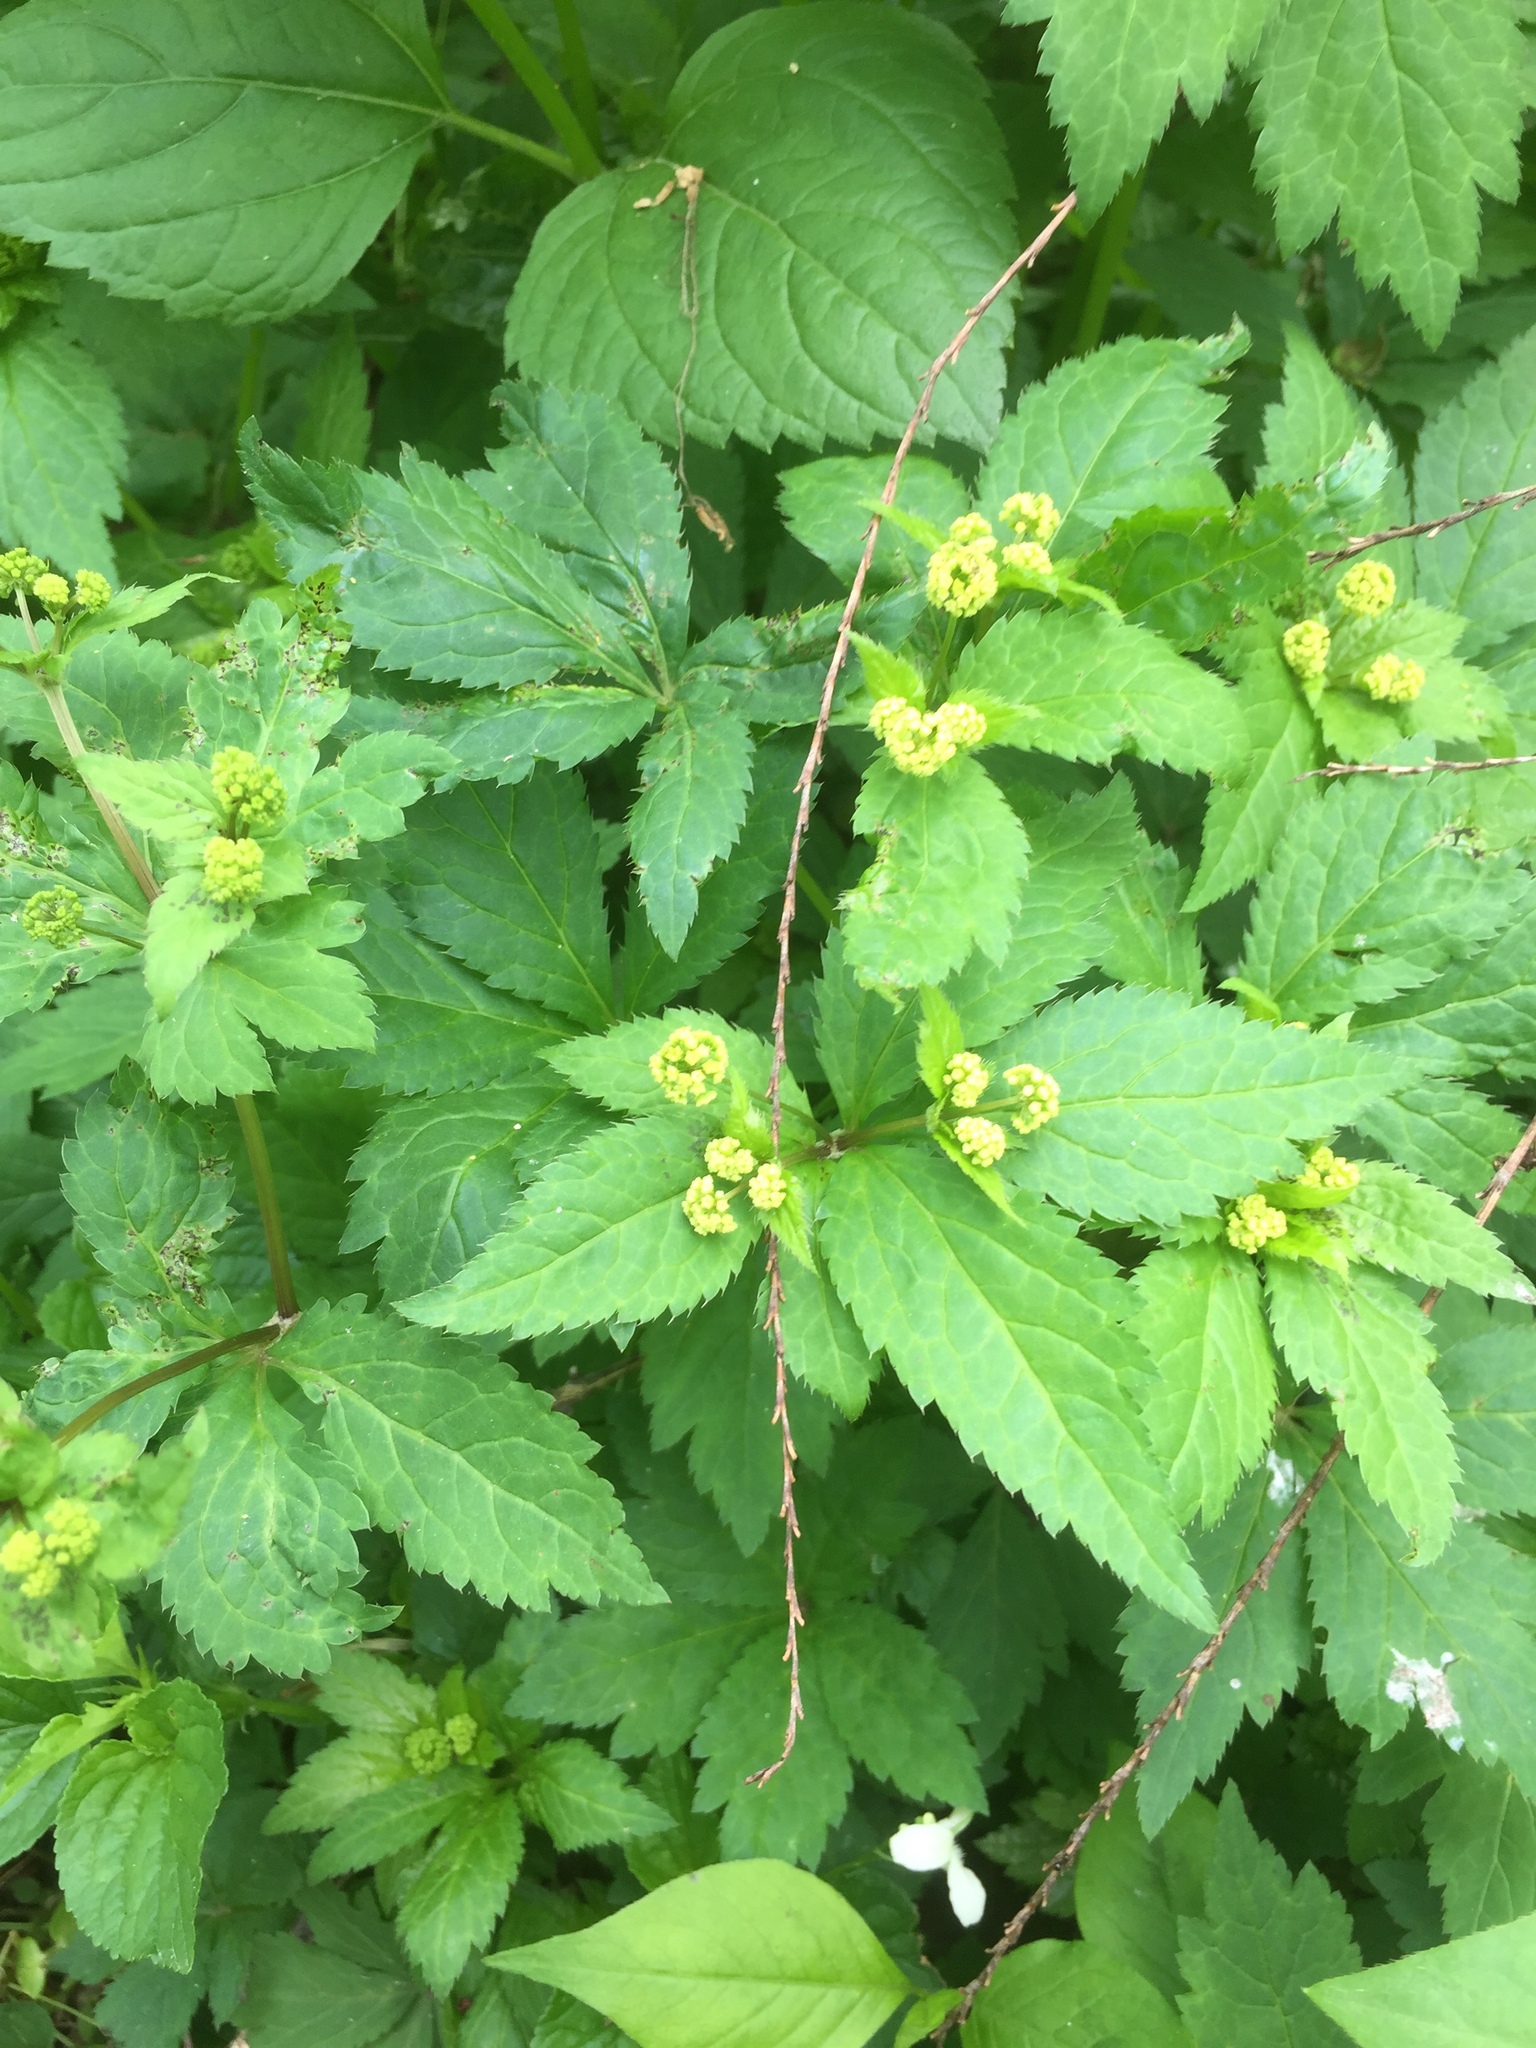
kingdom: Plantae
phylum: Tracheophyta
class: Magnoliopsida
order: Apiales
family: Apiaceae
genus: Sanicula
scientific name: Sanicula odorata
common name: Cluster sanicle
